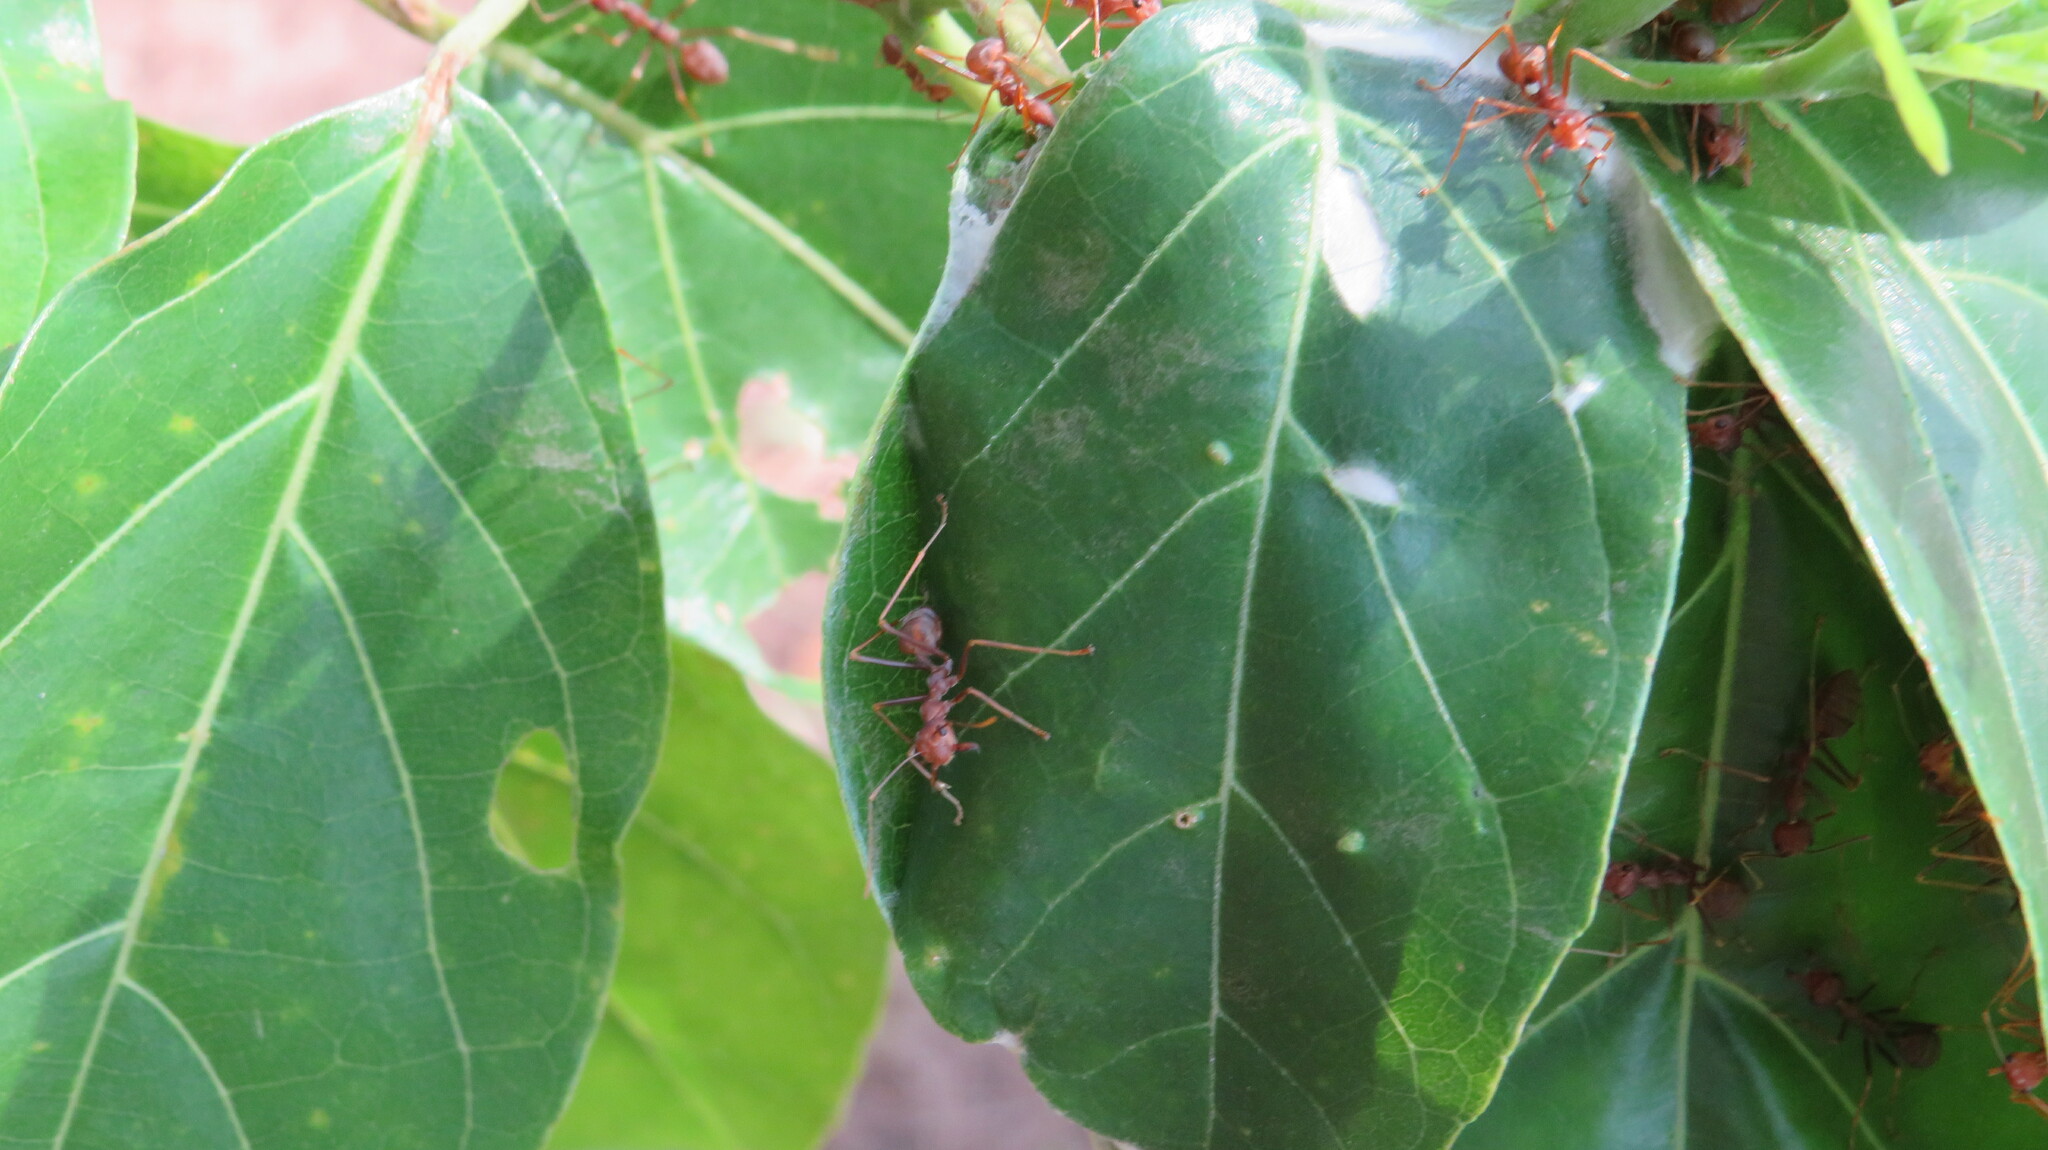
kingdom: Animalia
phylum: Arthropoda
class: Insecta
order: Hymenoptera
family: Formicidae
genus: Oecophylla
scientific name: Oecophylla smaragdina
